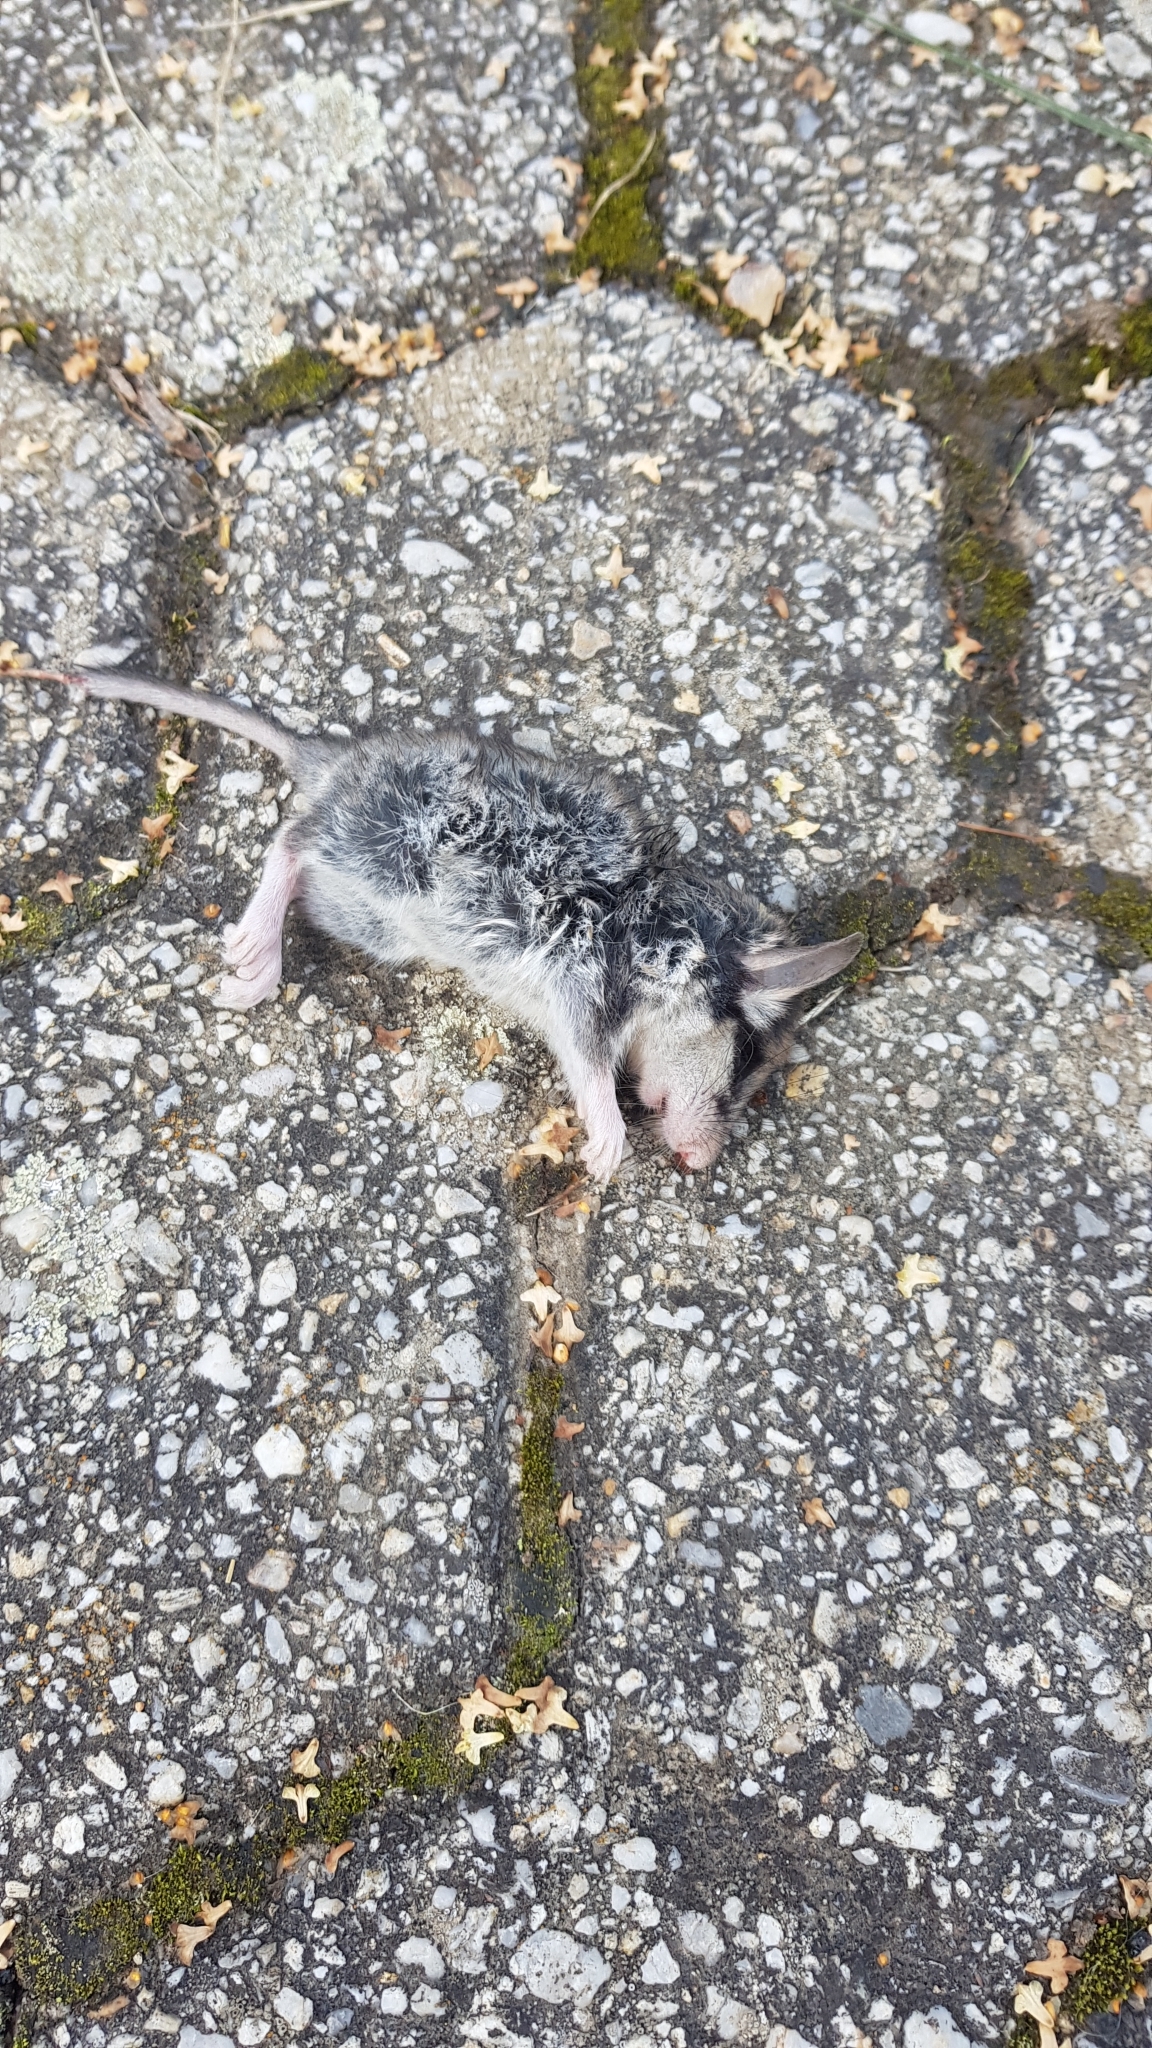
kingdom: Animalia
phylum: Chordata
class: Mammalia
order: Rodentia
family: Gliridae
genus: Eliomys
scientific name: Eliomys quercinus
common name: Garden dormouse
